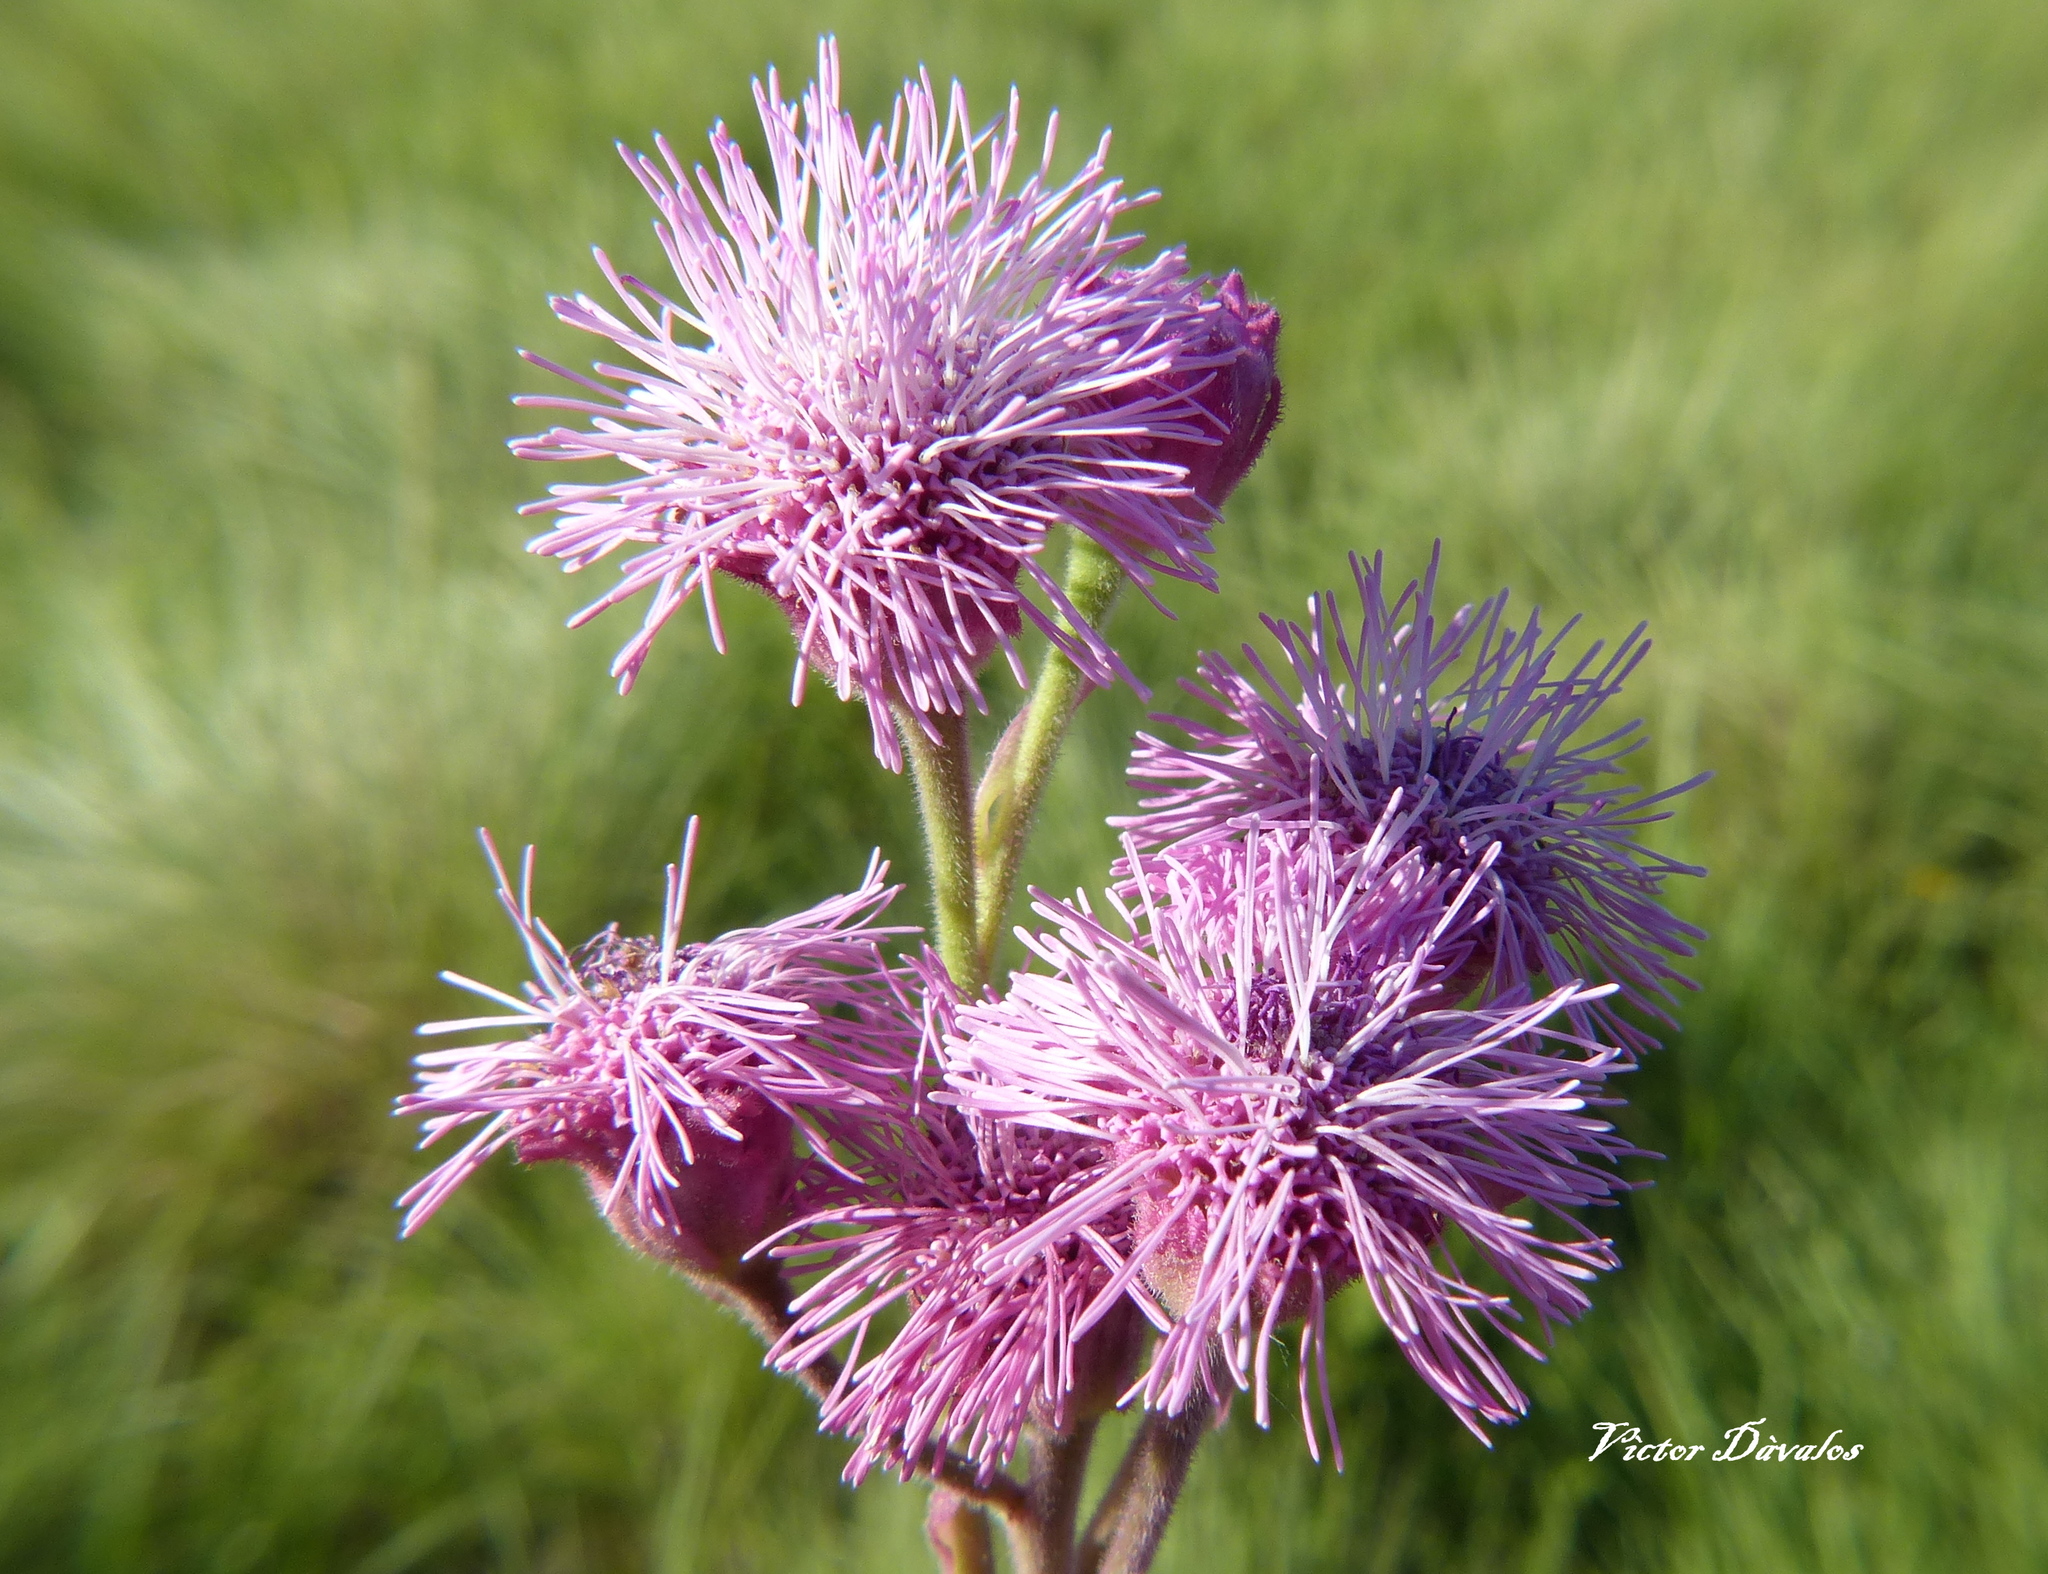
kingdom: Plantae
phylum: Tracheophyta
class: Magnoliopsida
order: Asterales
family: Asteraceae
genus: Campuloclinium
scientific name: Campuloclinium macrocephalum
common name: Pompomweed
